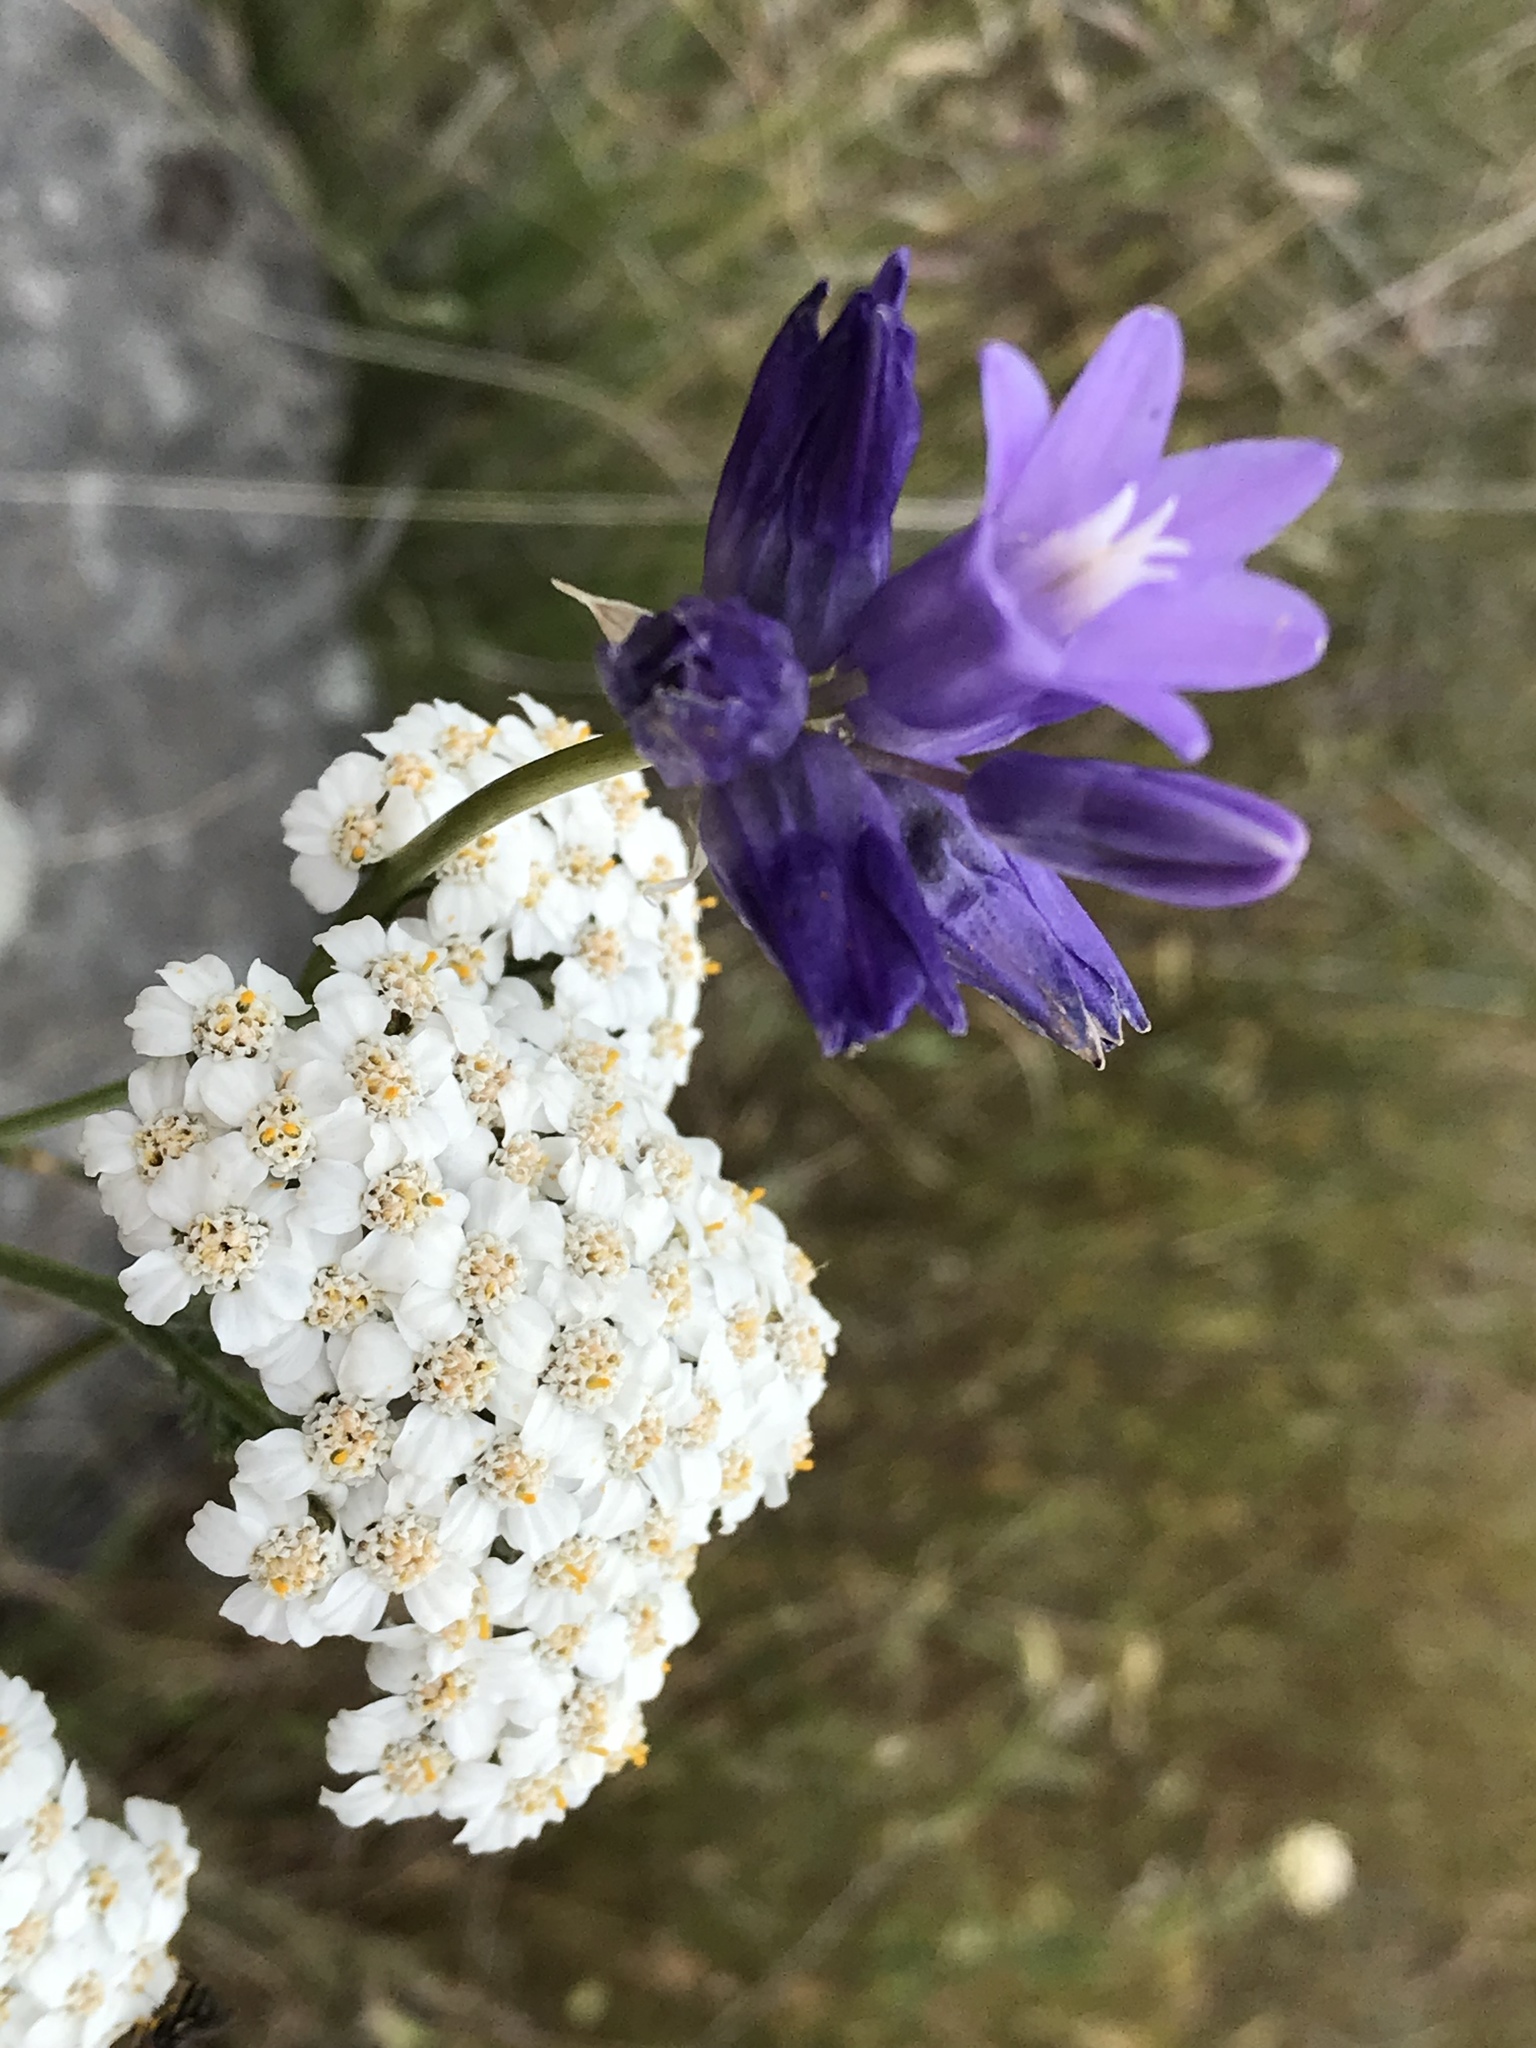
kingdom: Plantae
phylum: Tracheophyta
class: Magnoliopsida
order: Asterales
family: Asteraceae
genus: Achillea
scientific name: Achillea millefolium
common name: Yarrow
